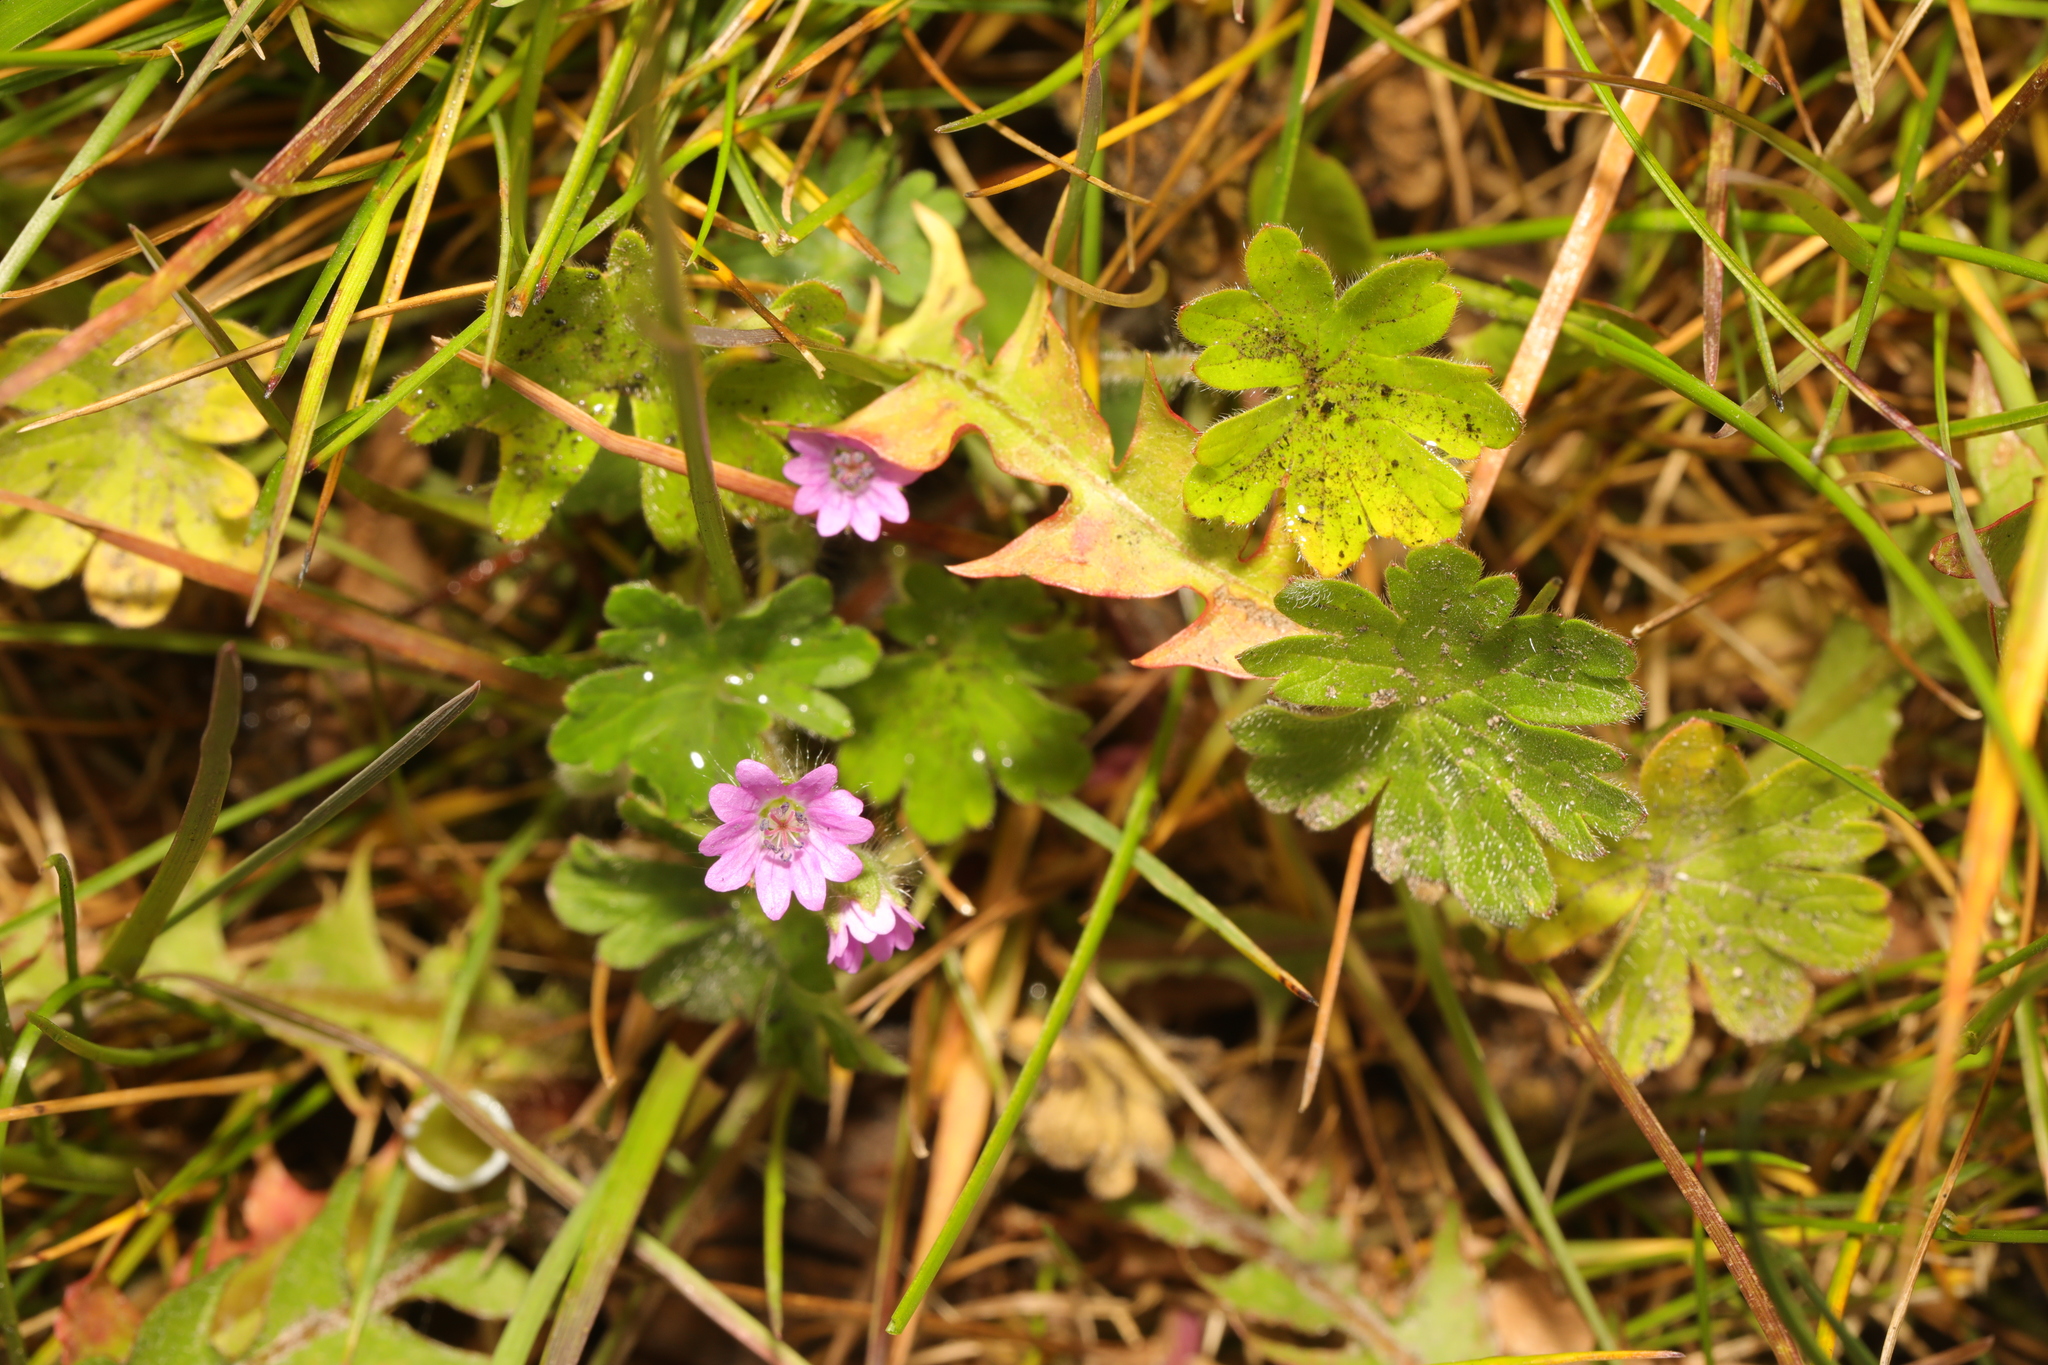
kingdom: Plantae
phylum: Tracheophyta
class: Magnoliopsida
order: Geraniales
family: Geraniaceae
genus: Geranium
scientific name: Geranium molle
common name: Dove's-foot crane's-bill
